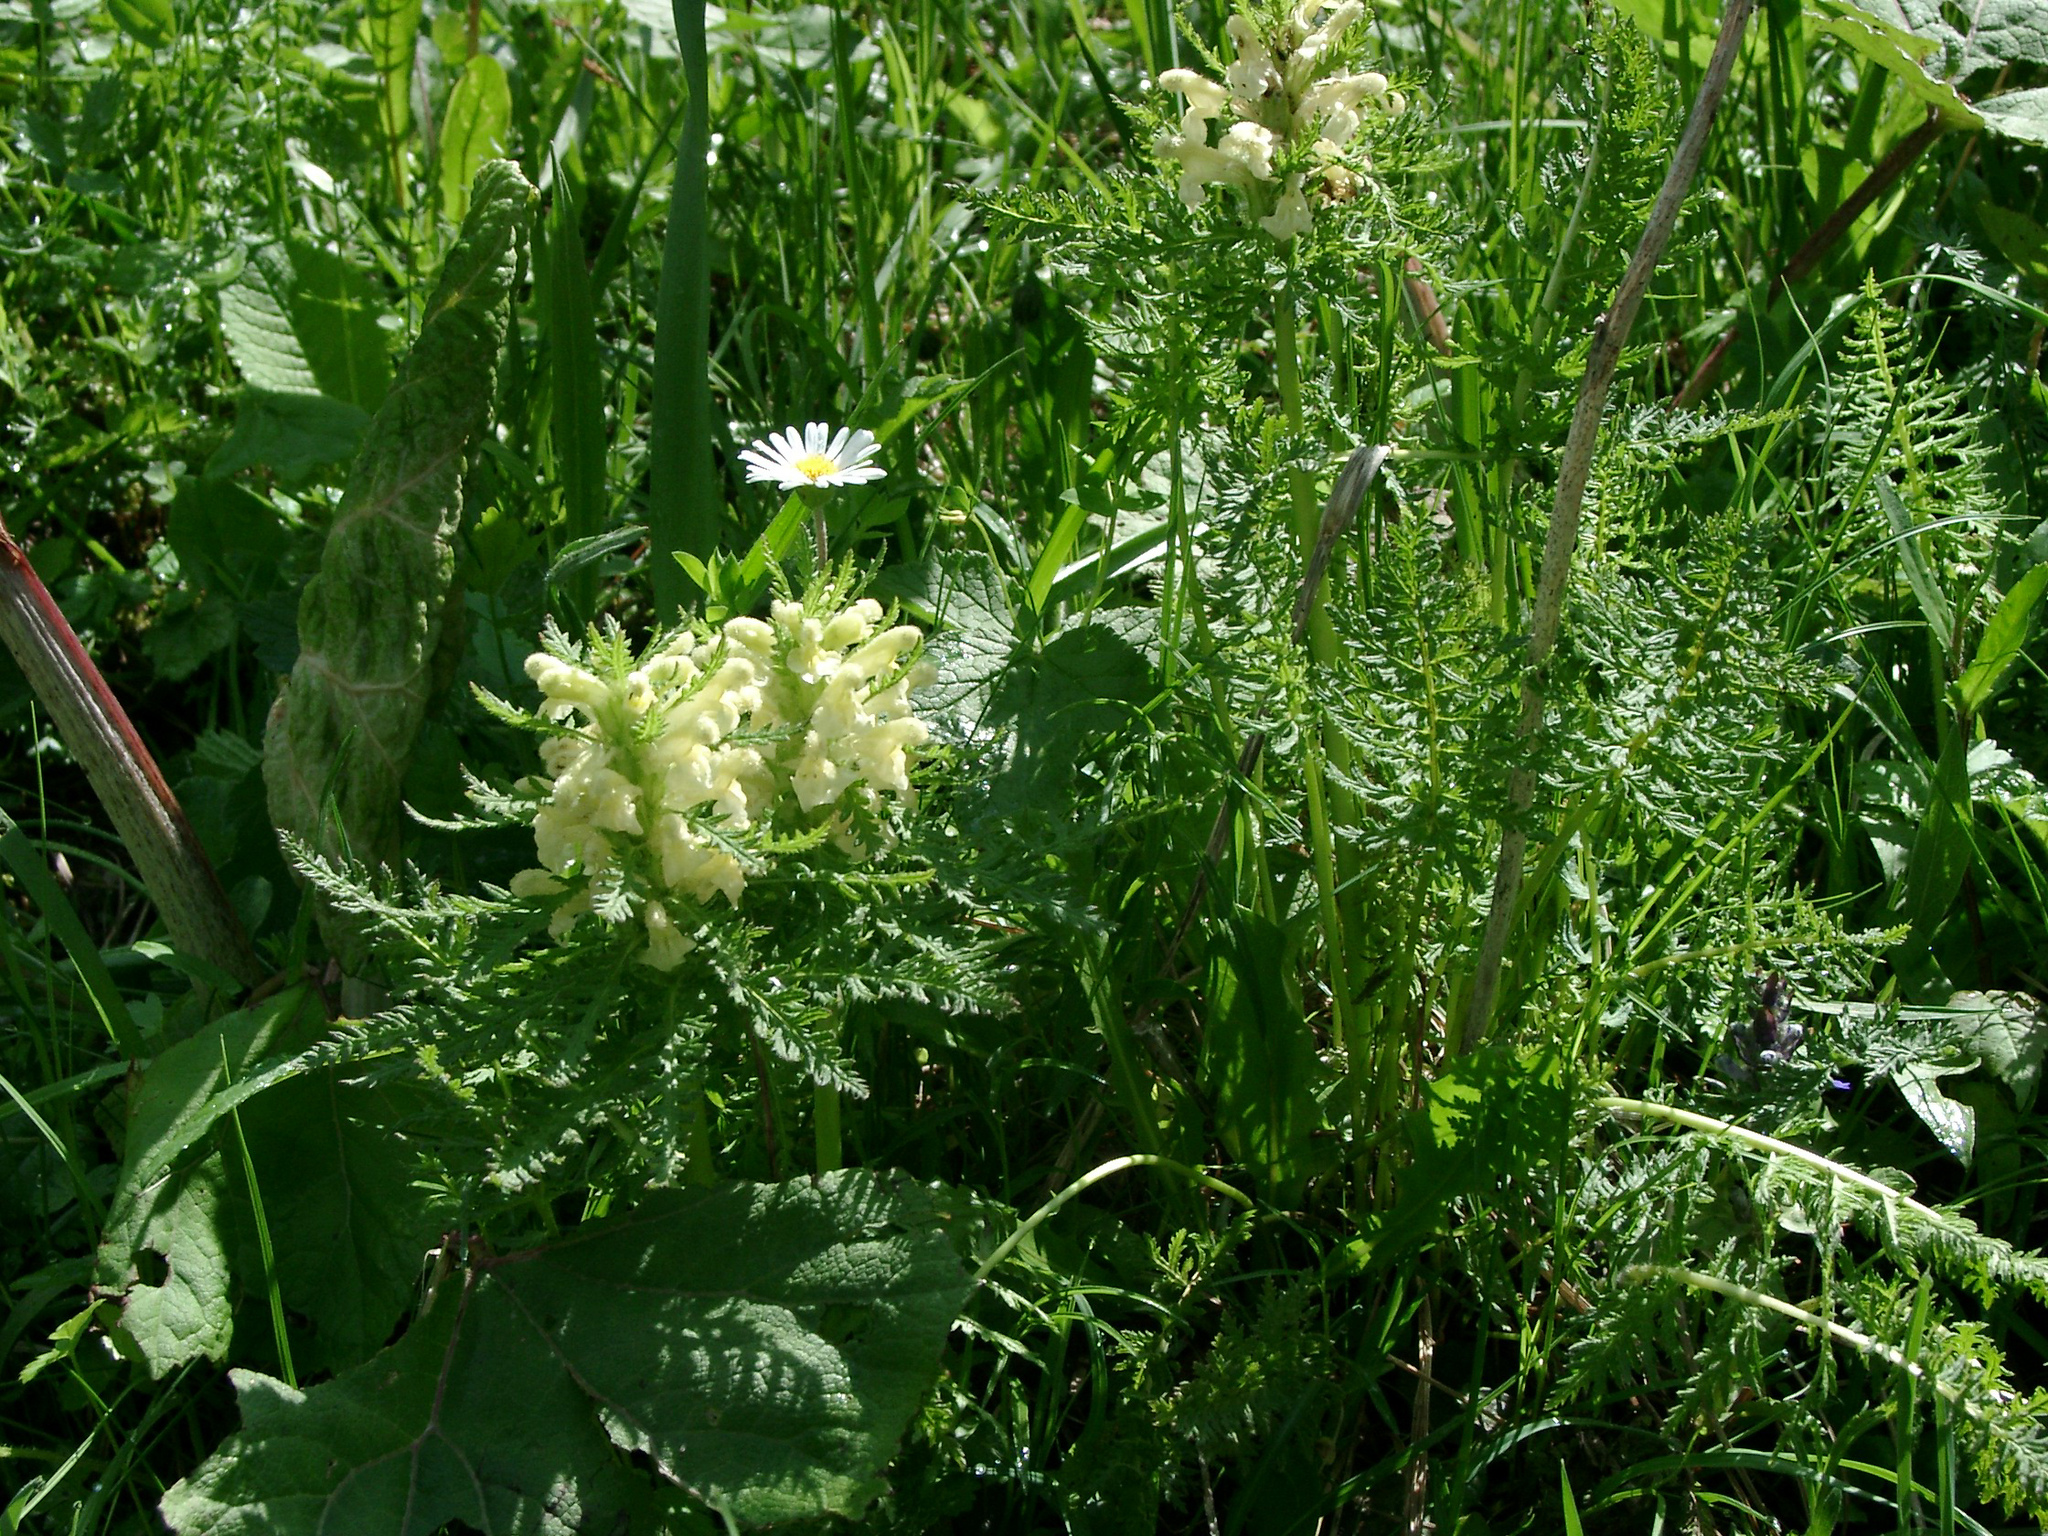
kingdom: Plantae
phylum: Tracheophyta
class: Magnoliopsida
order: Lamiales
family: Orobanchaceae
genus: Pedicularis
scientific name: Pedicularis foliosa
